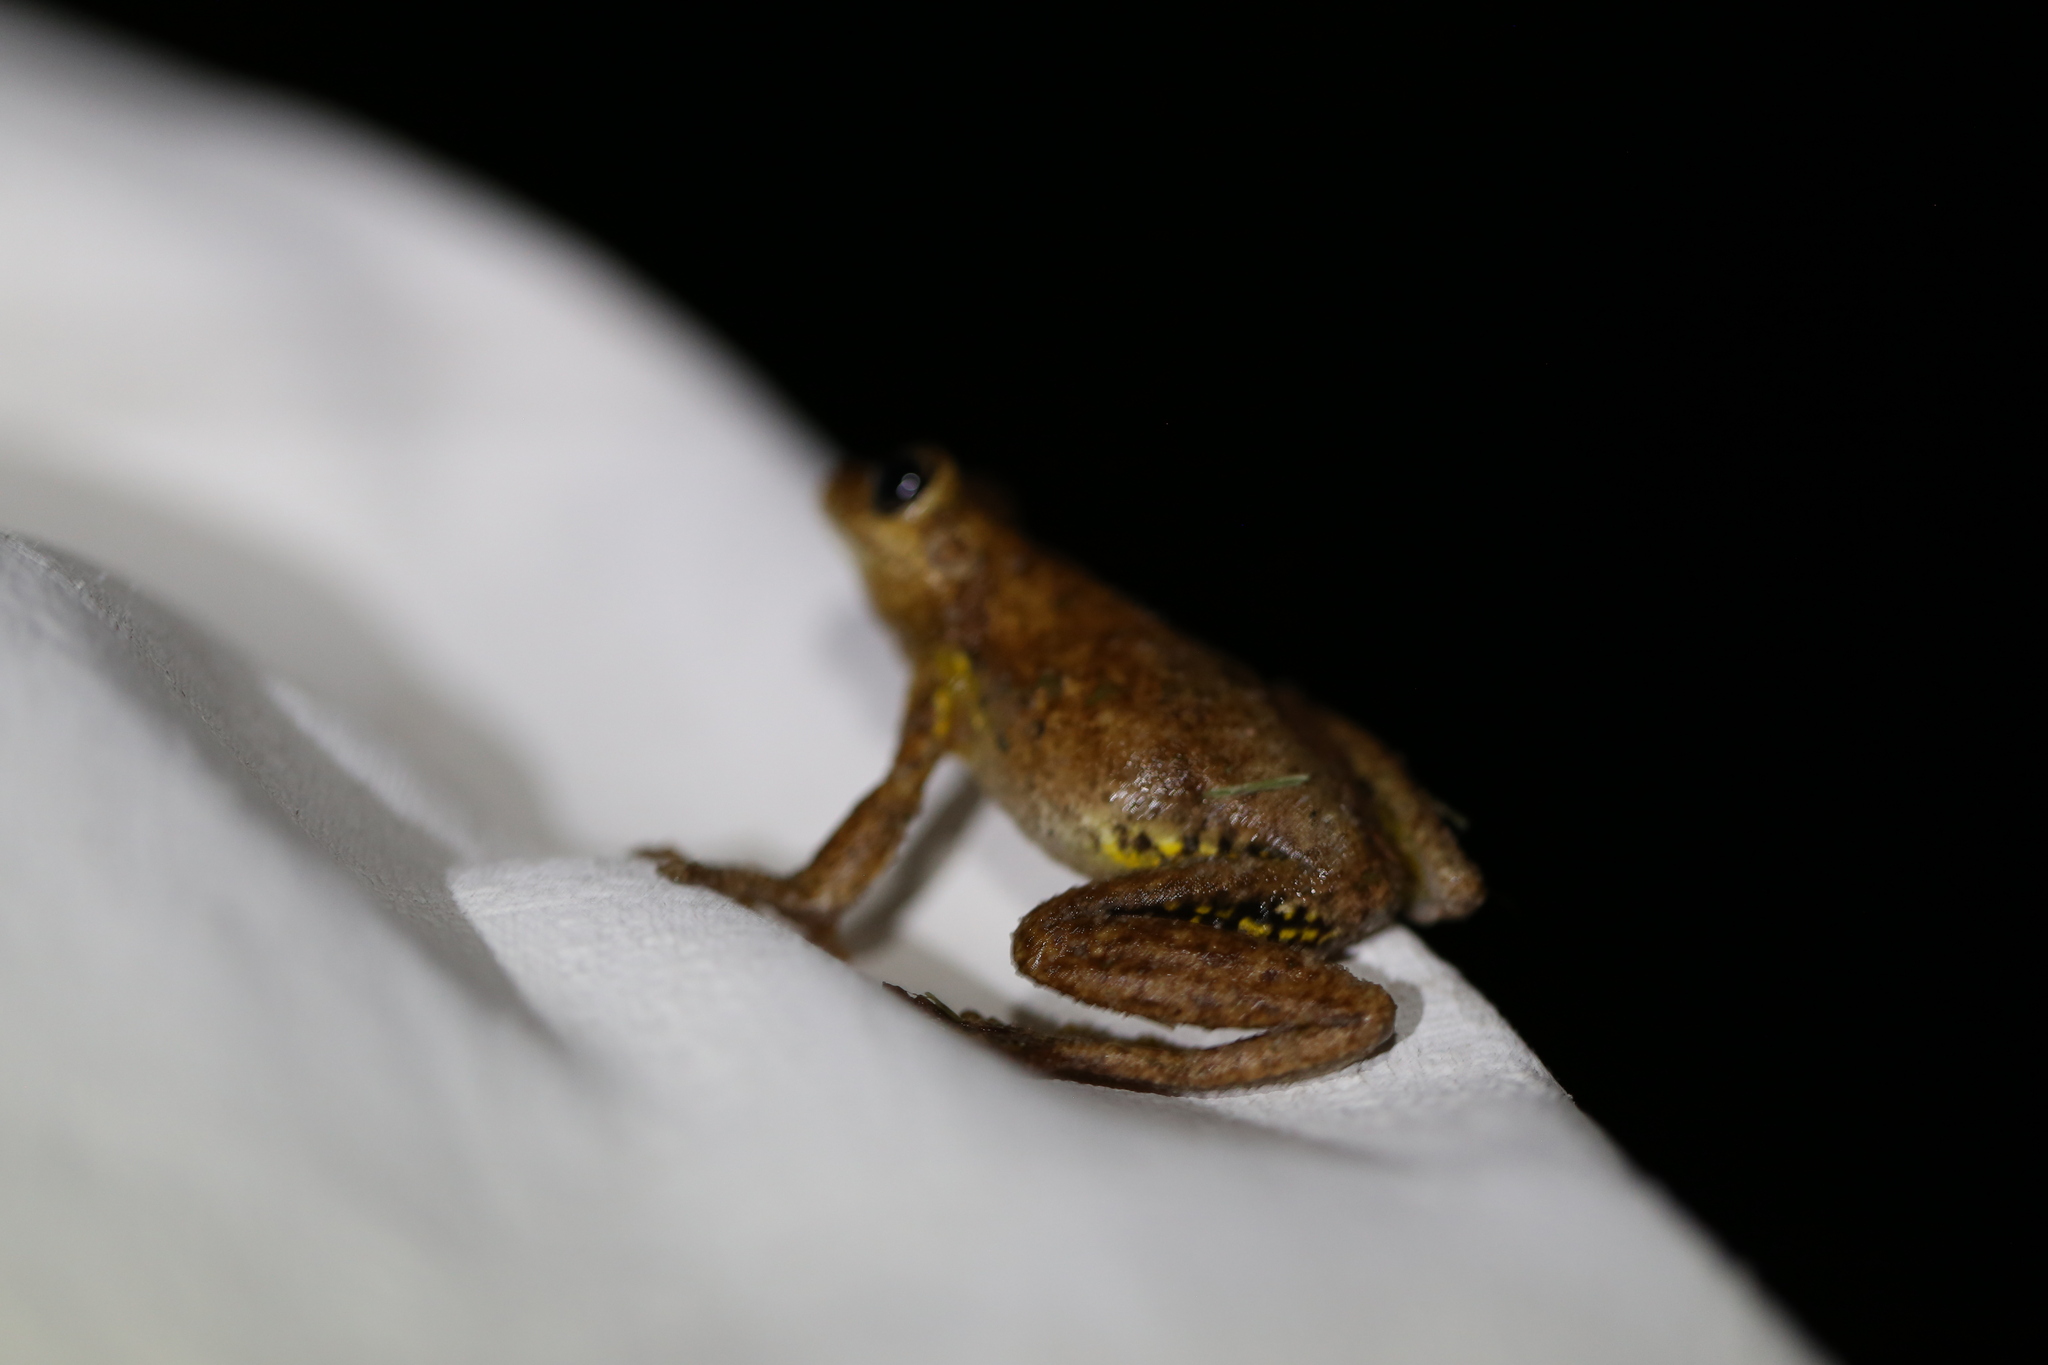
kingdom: Animalia
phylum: Chordata
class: Amphibia
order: Anura
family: Pelodryadidae
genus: Litoria
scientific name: Litoria peronii
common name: Emerald spotted treefrog
